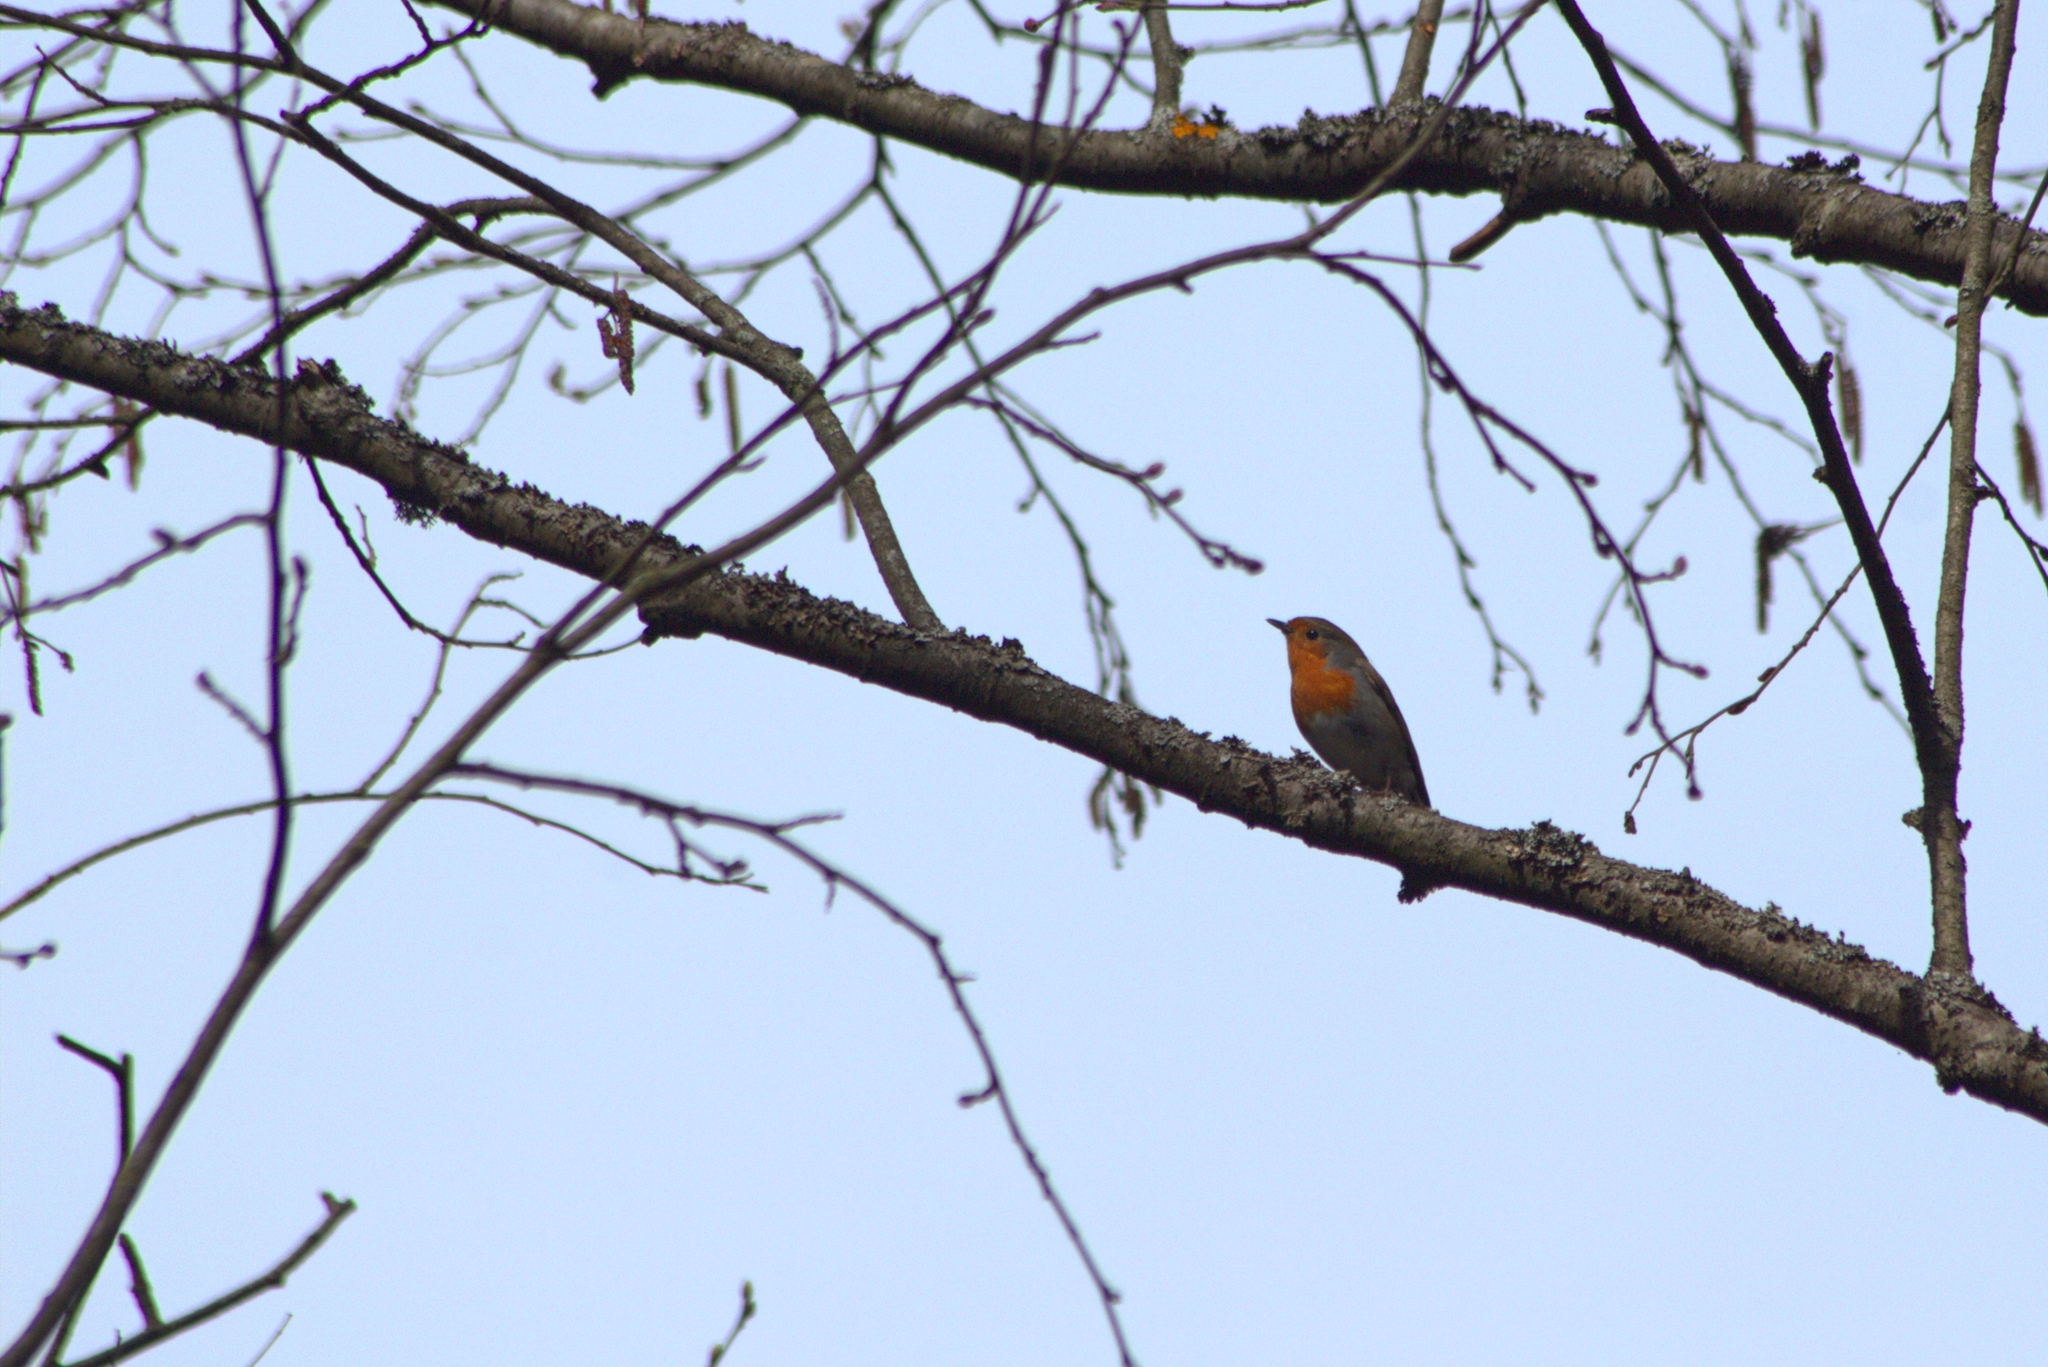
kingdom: Animalia
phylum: Chordata
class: Aves
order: Passeriformes
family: Muscicapidae
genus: Erithacus
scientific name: Erithacus rubecula
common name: European robin
